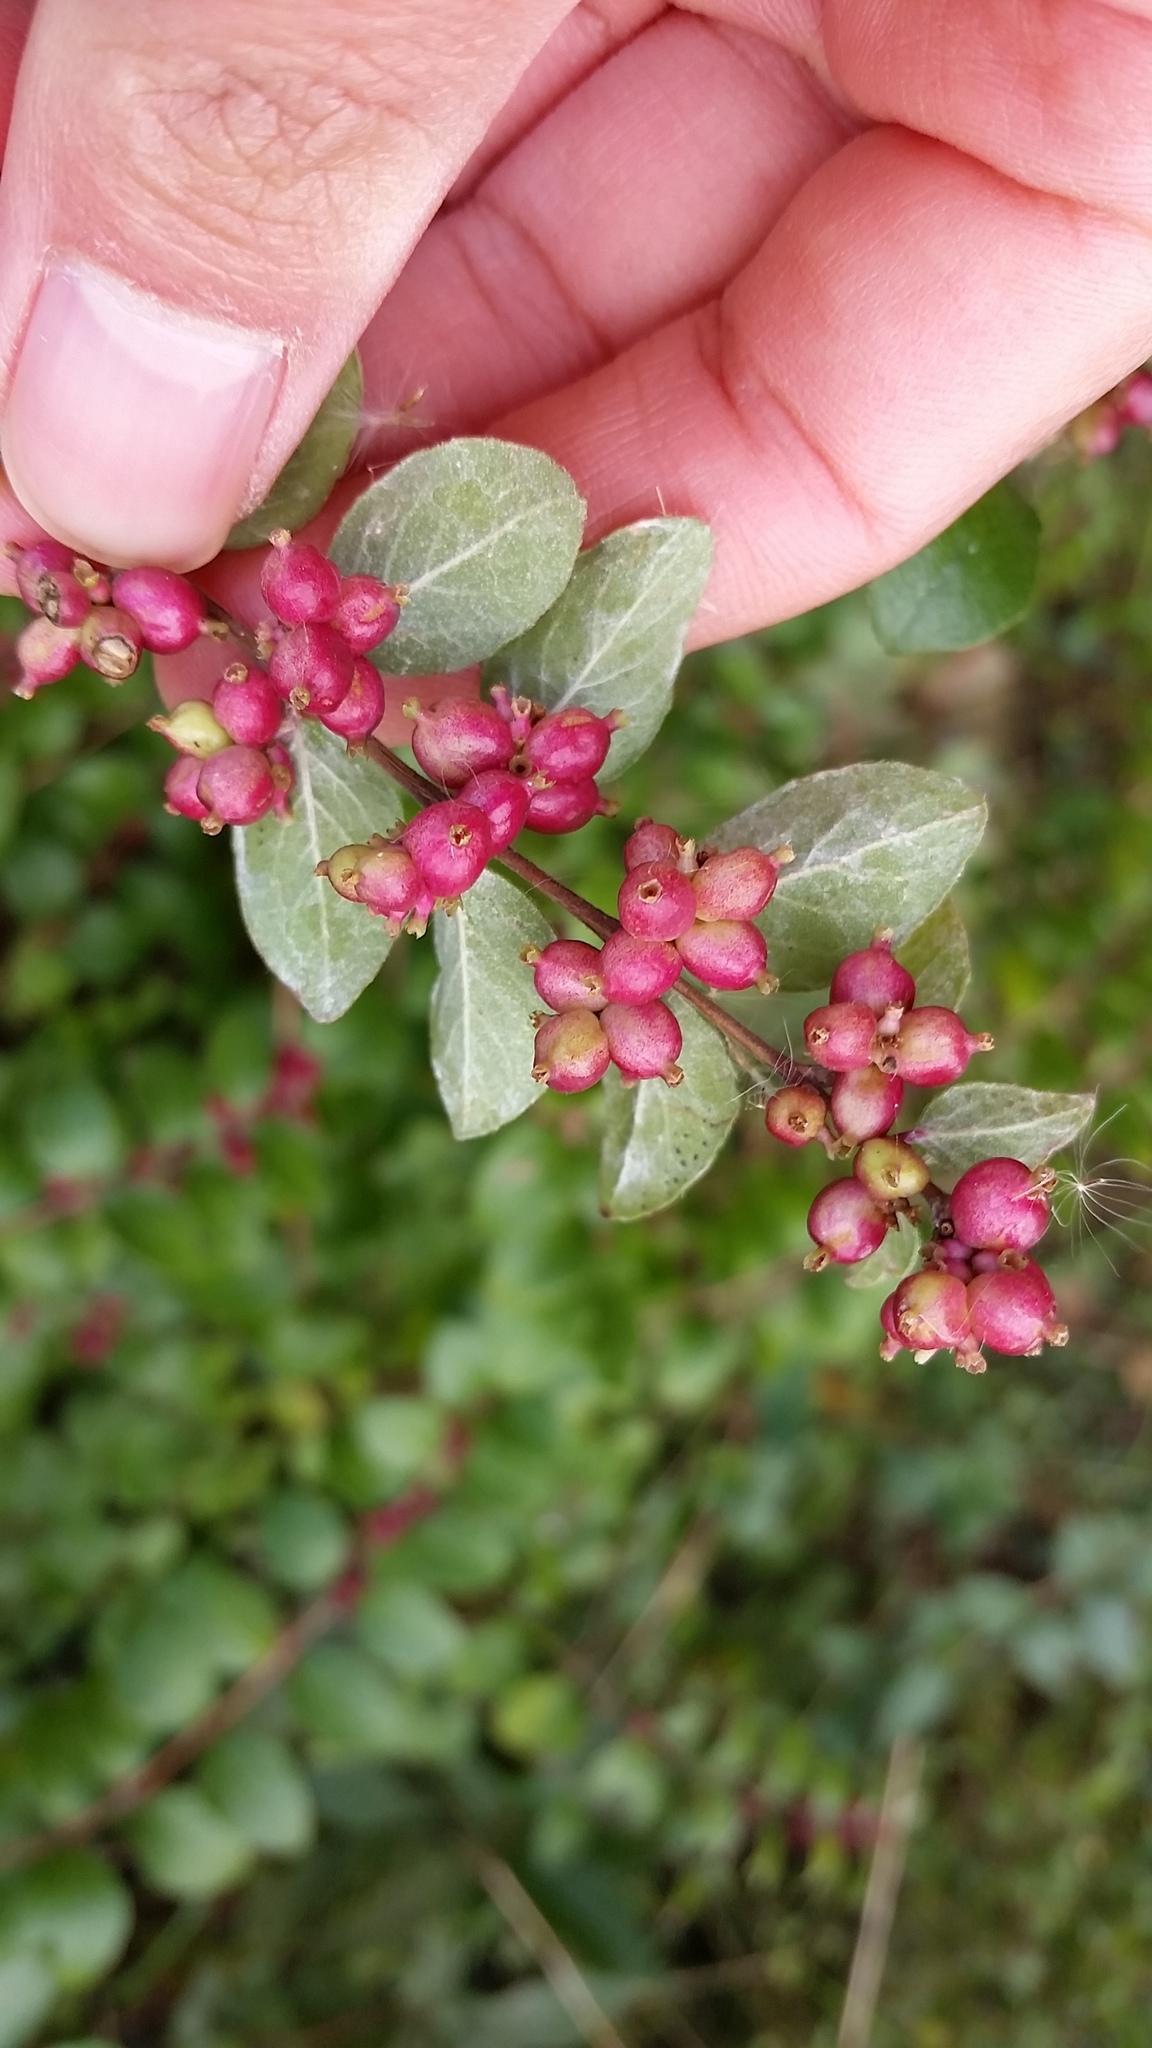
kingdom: Plantae
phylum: Tracheophyta
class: Magnoliopsida
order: Dipsacales
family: Caprifoliaceae
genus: Symphoricarpos
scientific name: Symphoricarpos orbiculatus
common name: Coralberry
